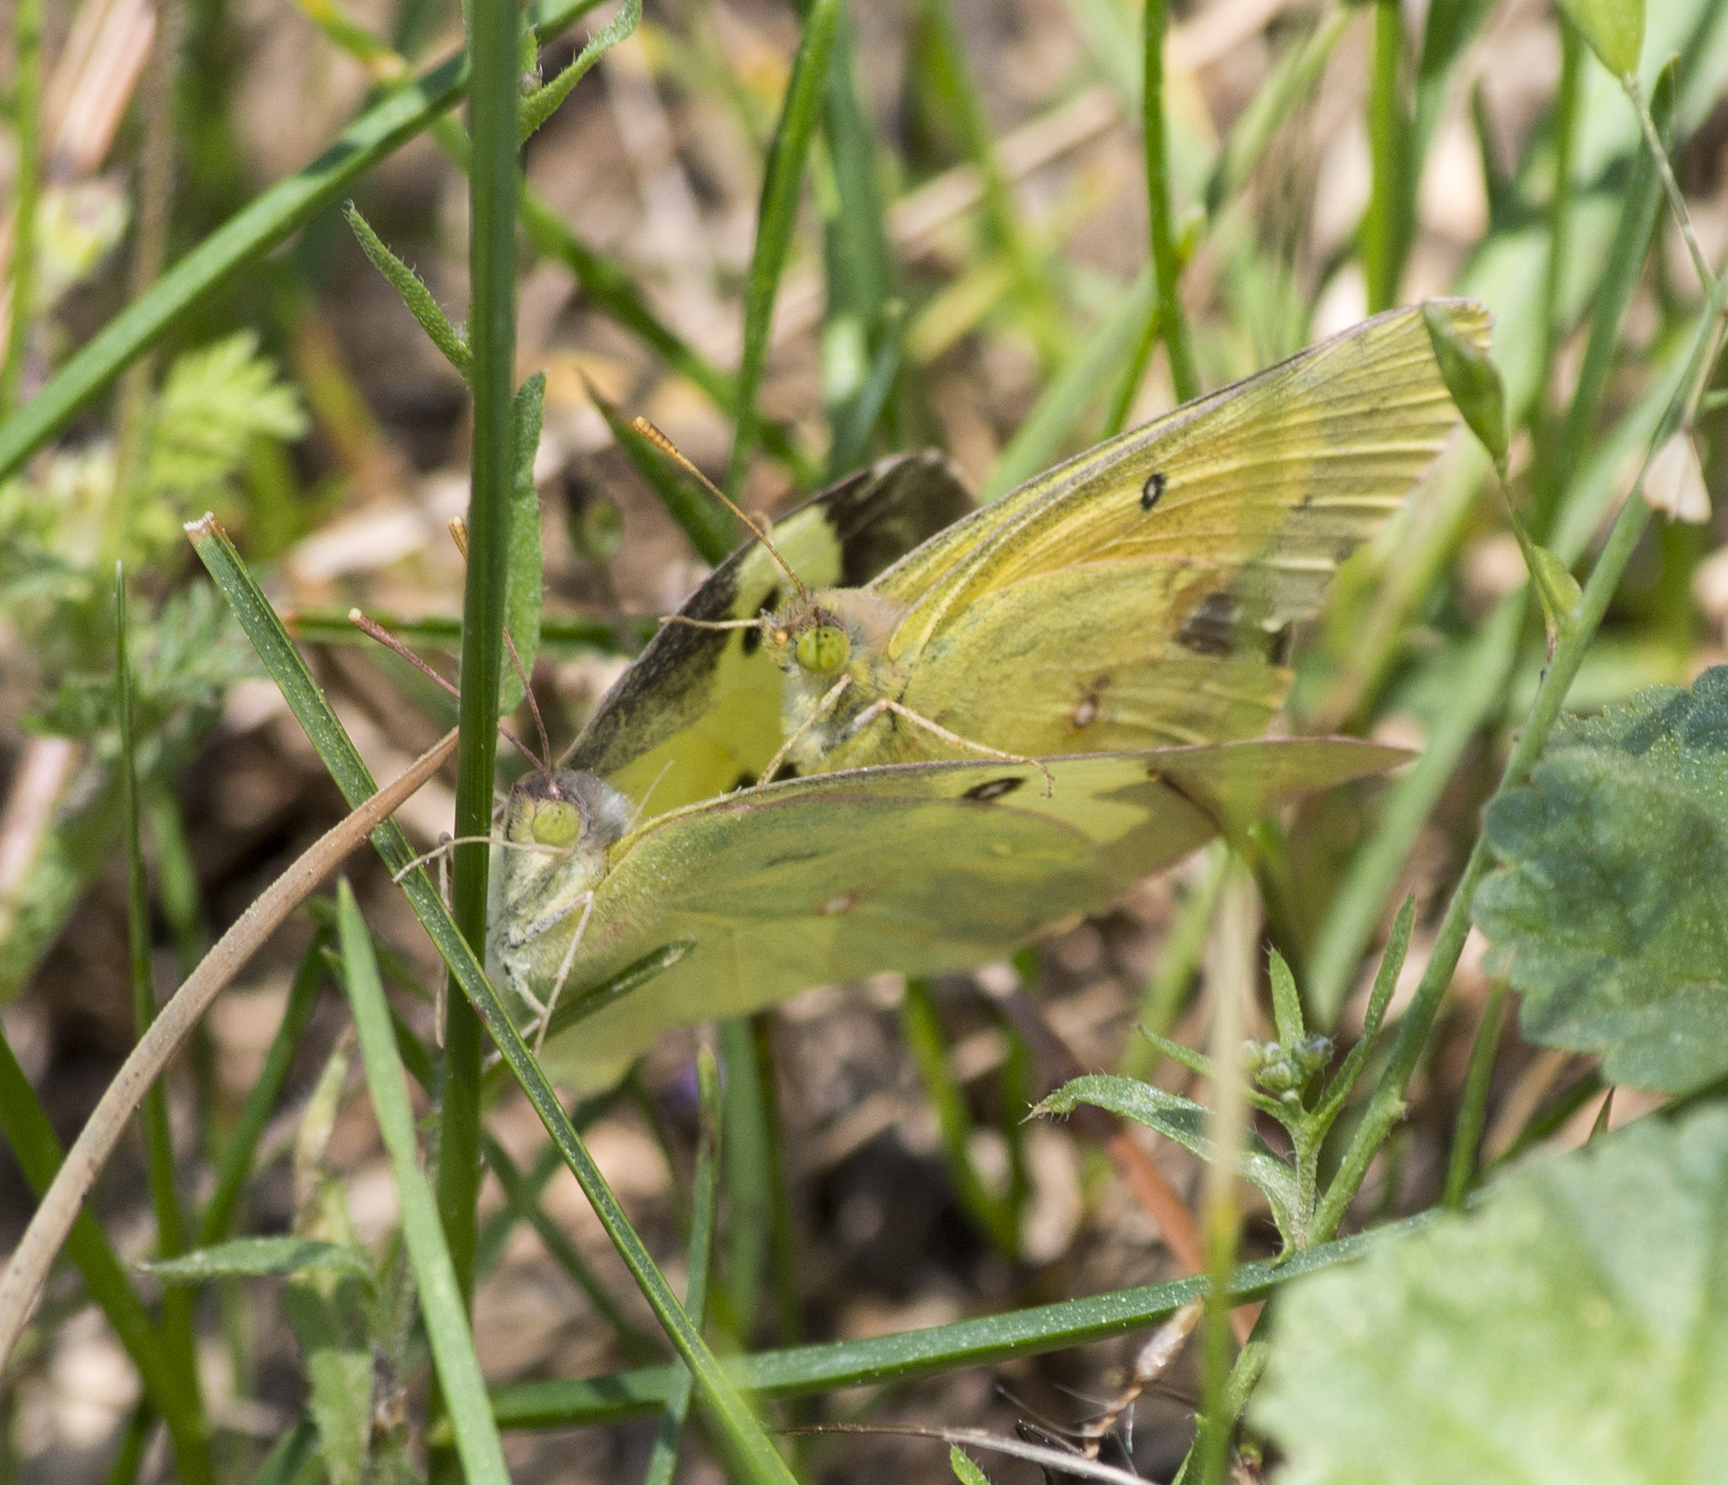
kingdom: Animalia
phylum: Arthropoda
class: Insecta
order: Lepidoptera
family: Pieridae
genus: Zerene
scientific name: Zerene cesonia
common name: Southern dogface
